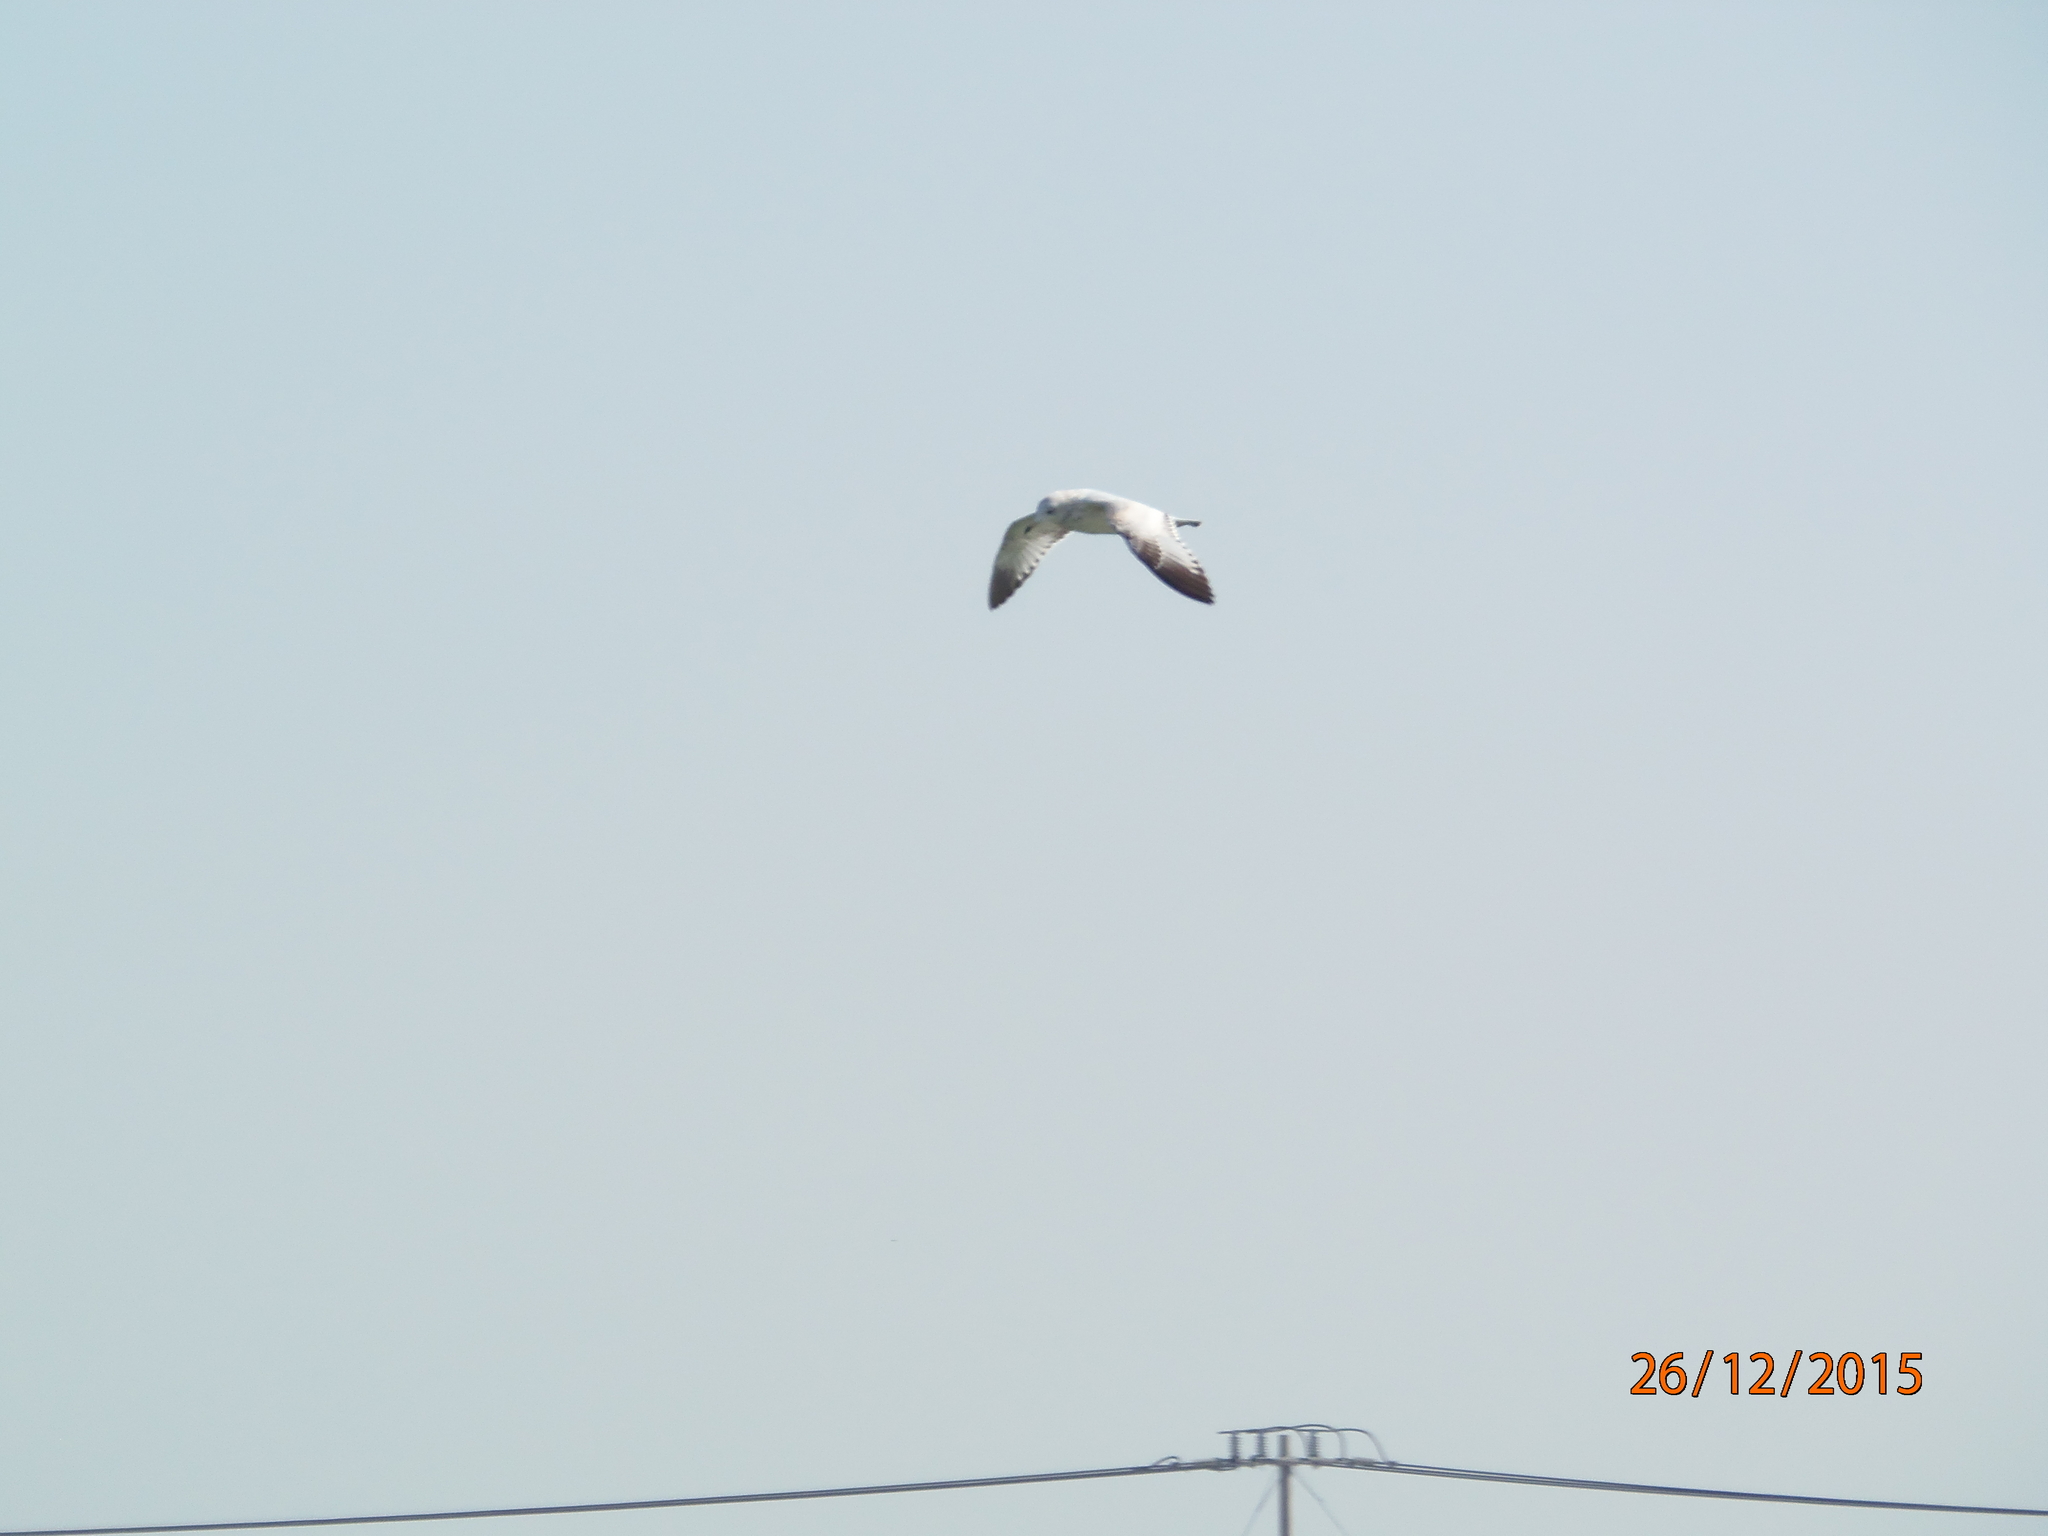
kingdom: Animalia
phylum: Chordata
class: Aves
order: Charadriiformes
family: Laridae
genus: Larus
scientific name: Larus delawarensis
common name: Ring-billed gull
